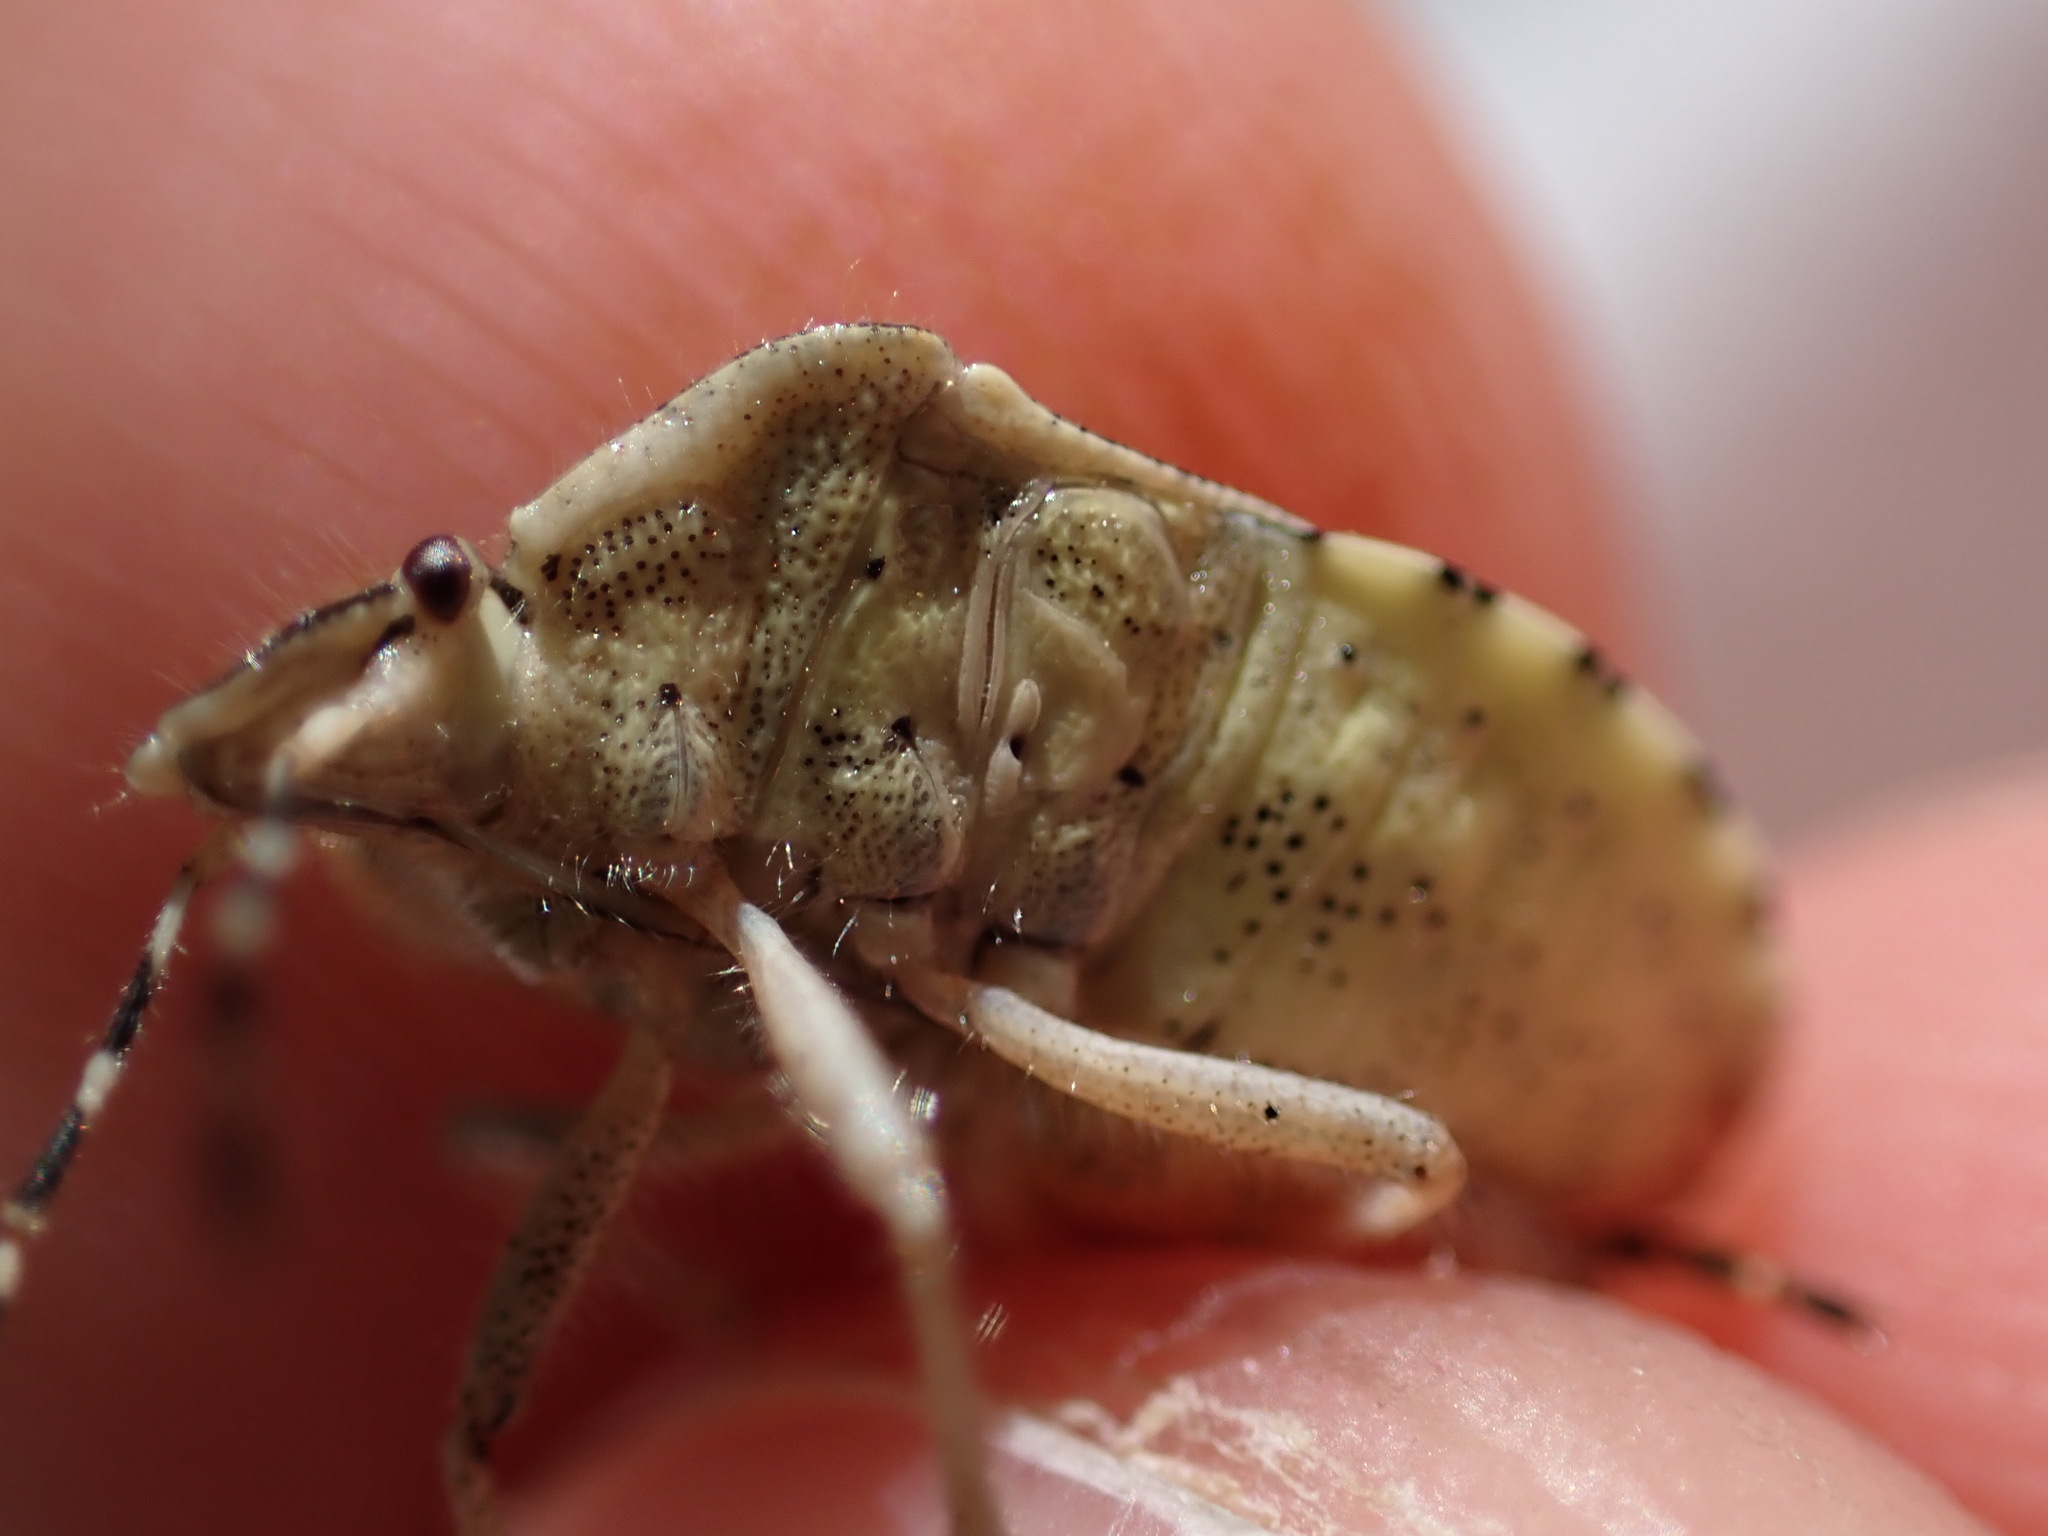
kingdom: Animalia
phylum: Arthropoda
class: Insecta
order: Hemiptera
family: Pentatomidae
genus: Dolycoris
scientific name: Dolycoris baccarum
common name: Sloe bug
